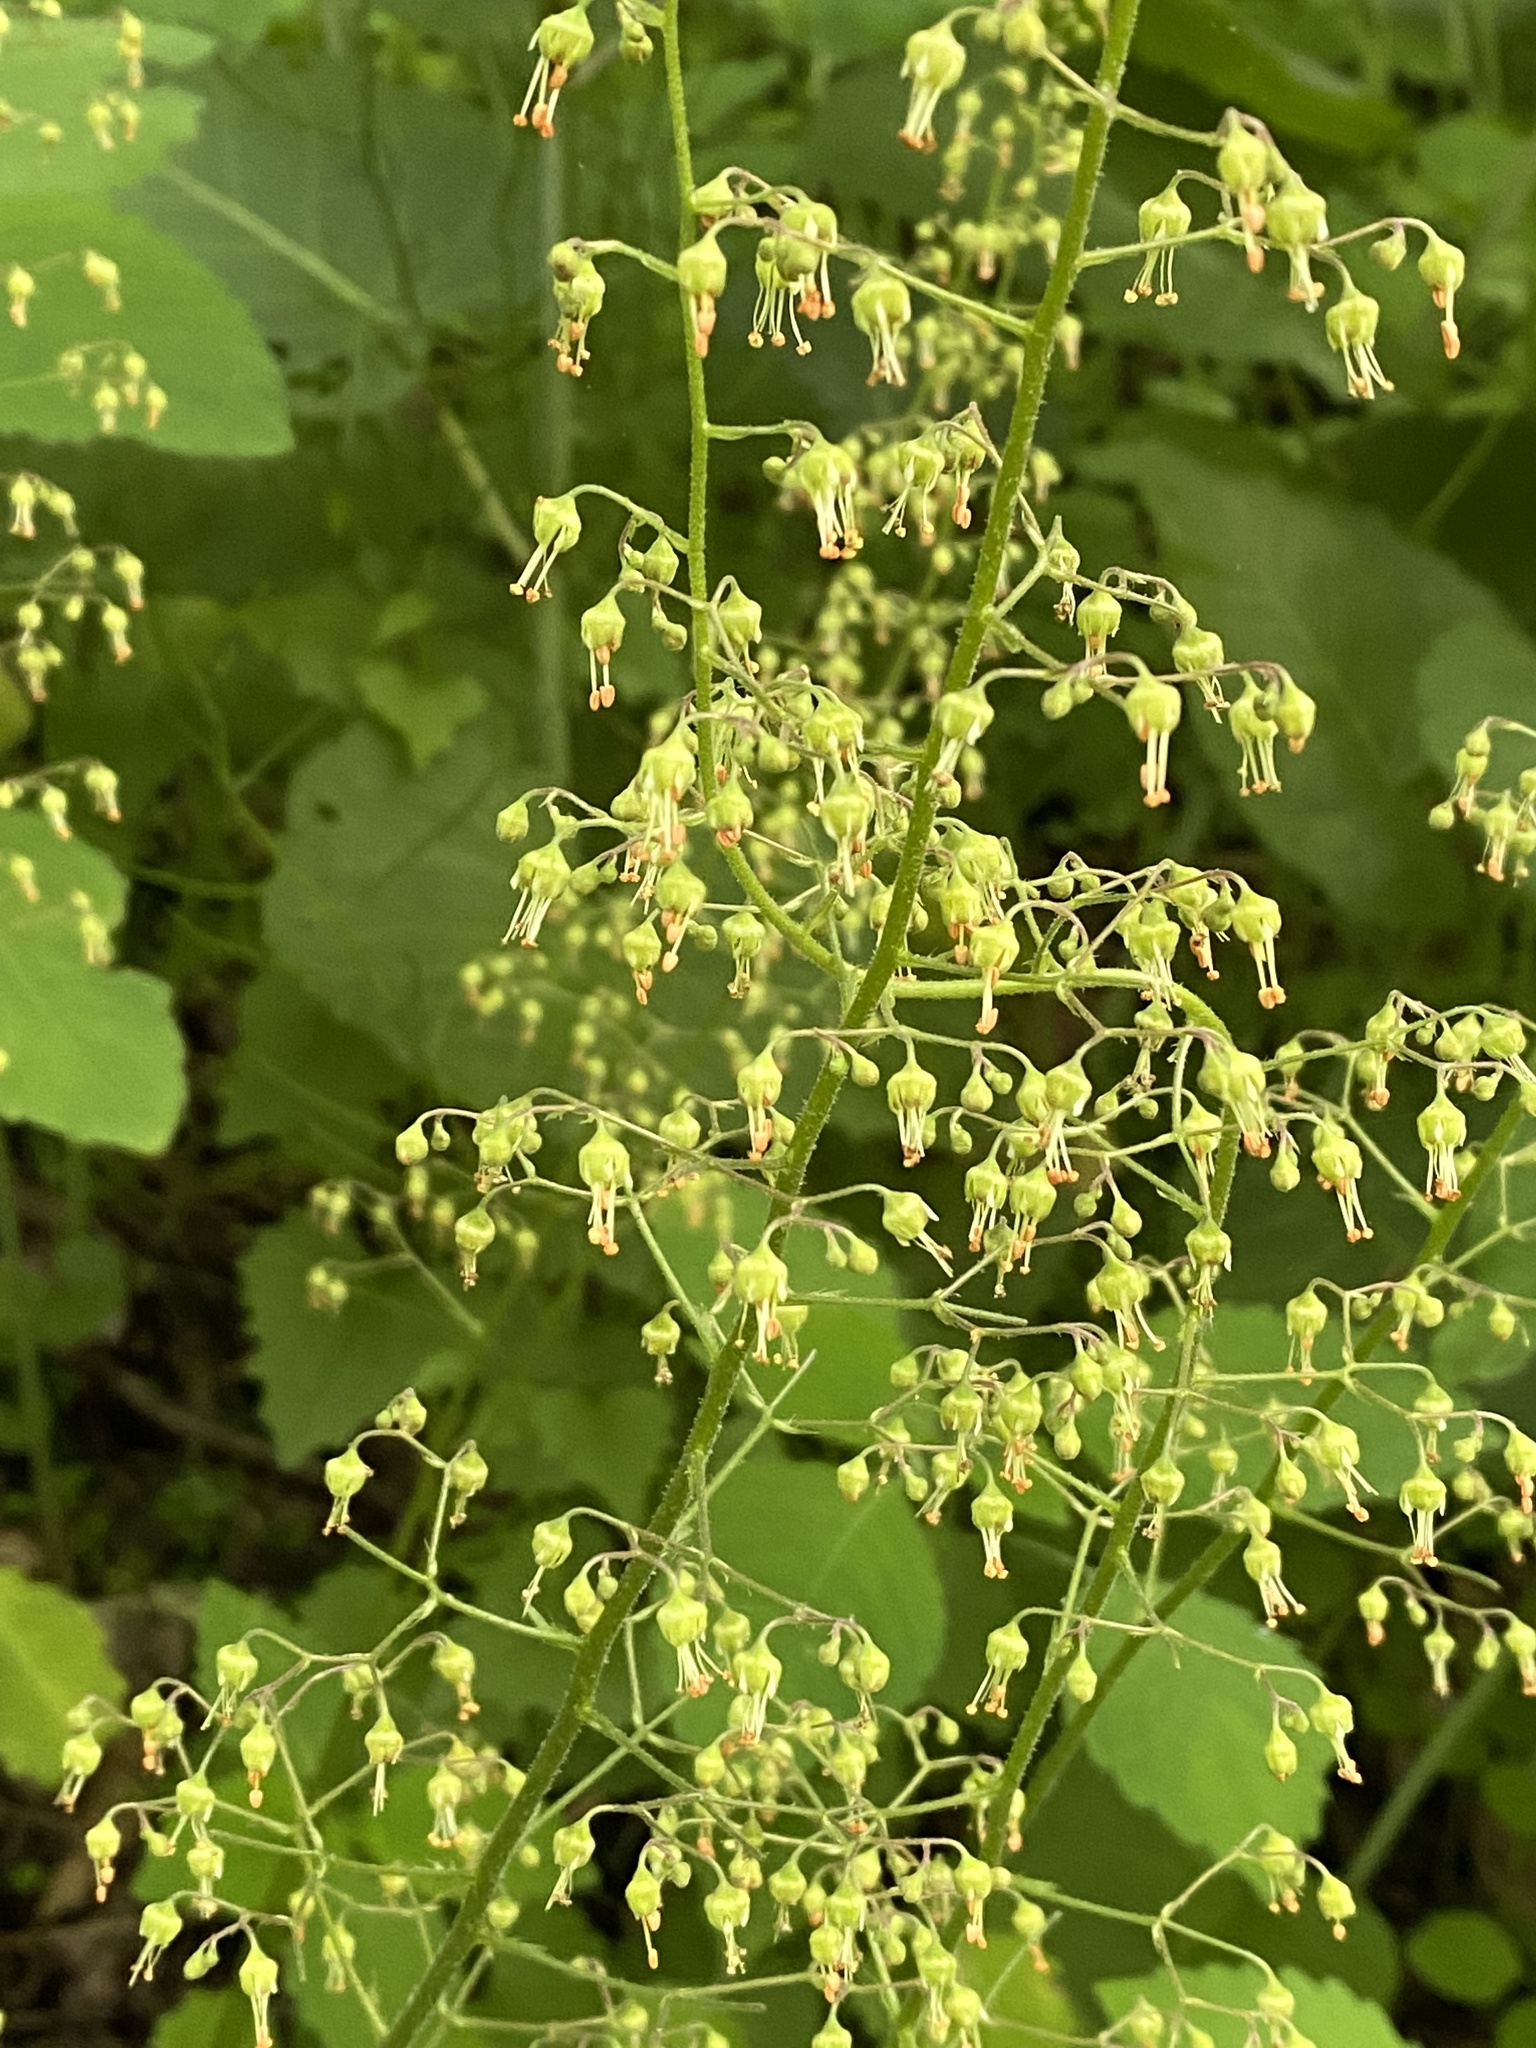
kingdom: Plantae
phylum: Tracheophyta
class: Magnoliopsida
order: Saxifragales
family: Saxifragaceae
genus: Heuchera
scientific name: Heuchera americana
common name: Alumroot
